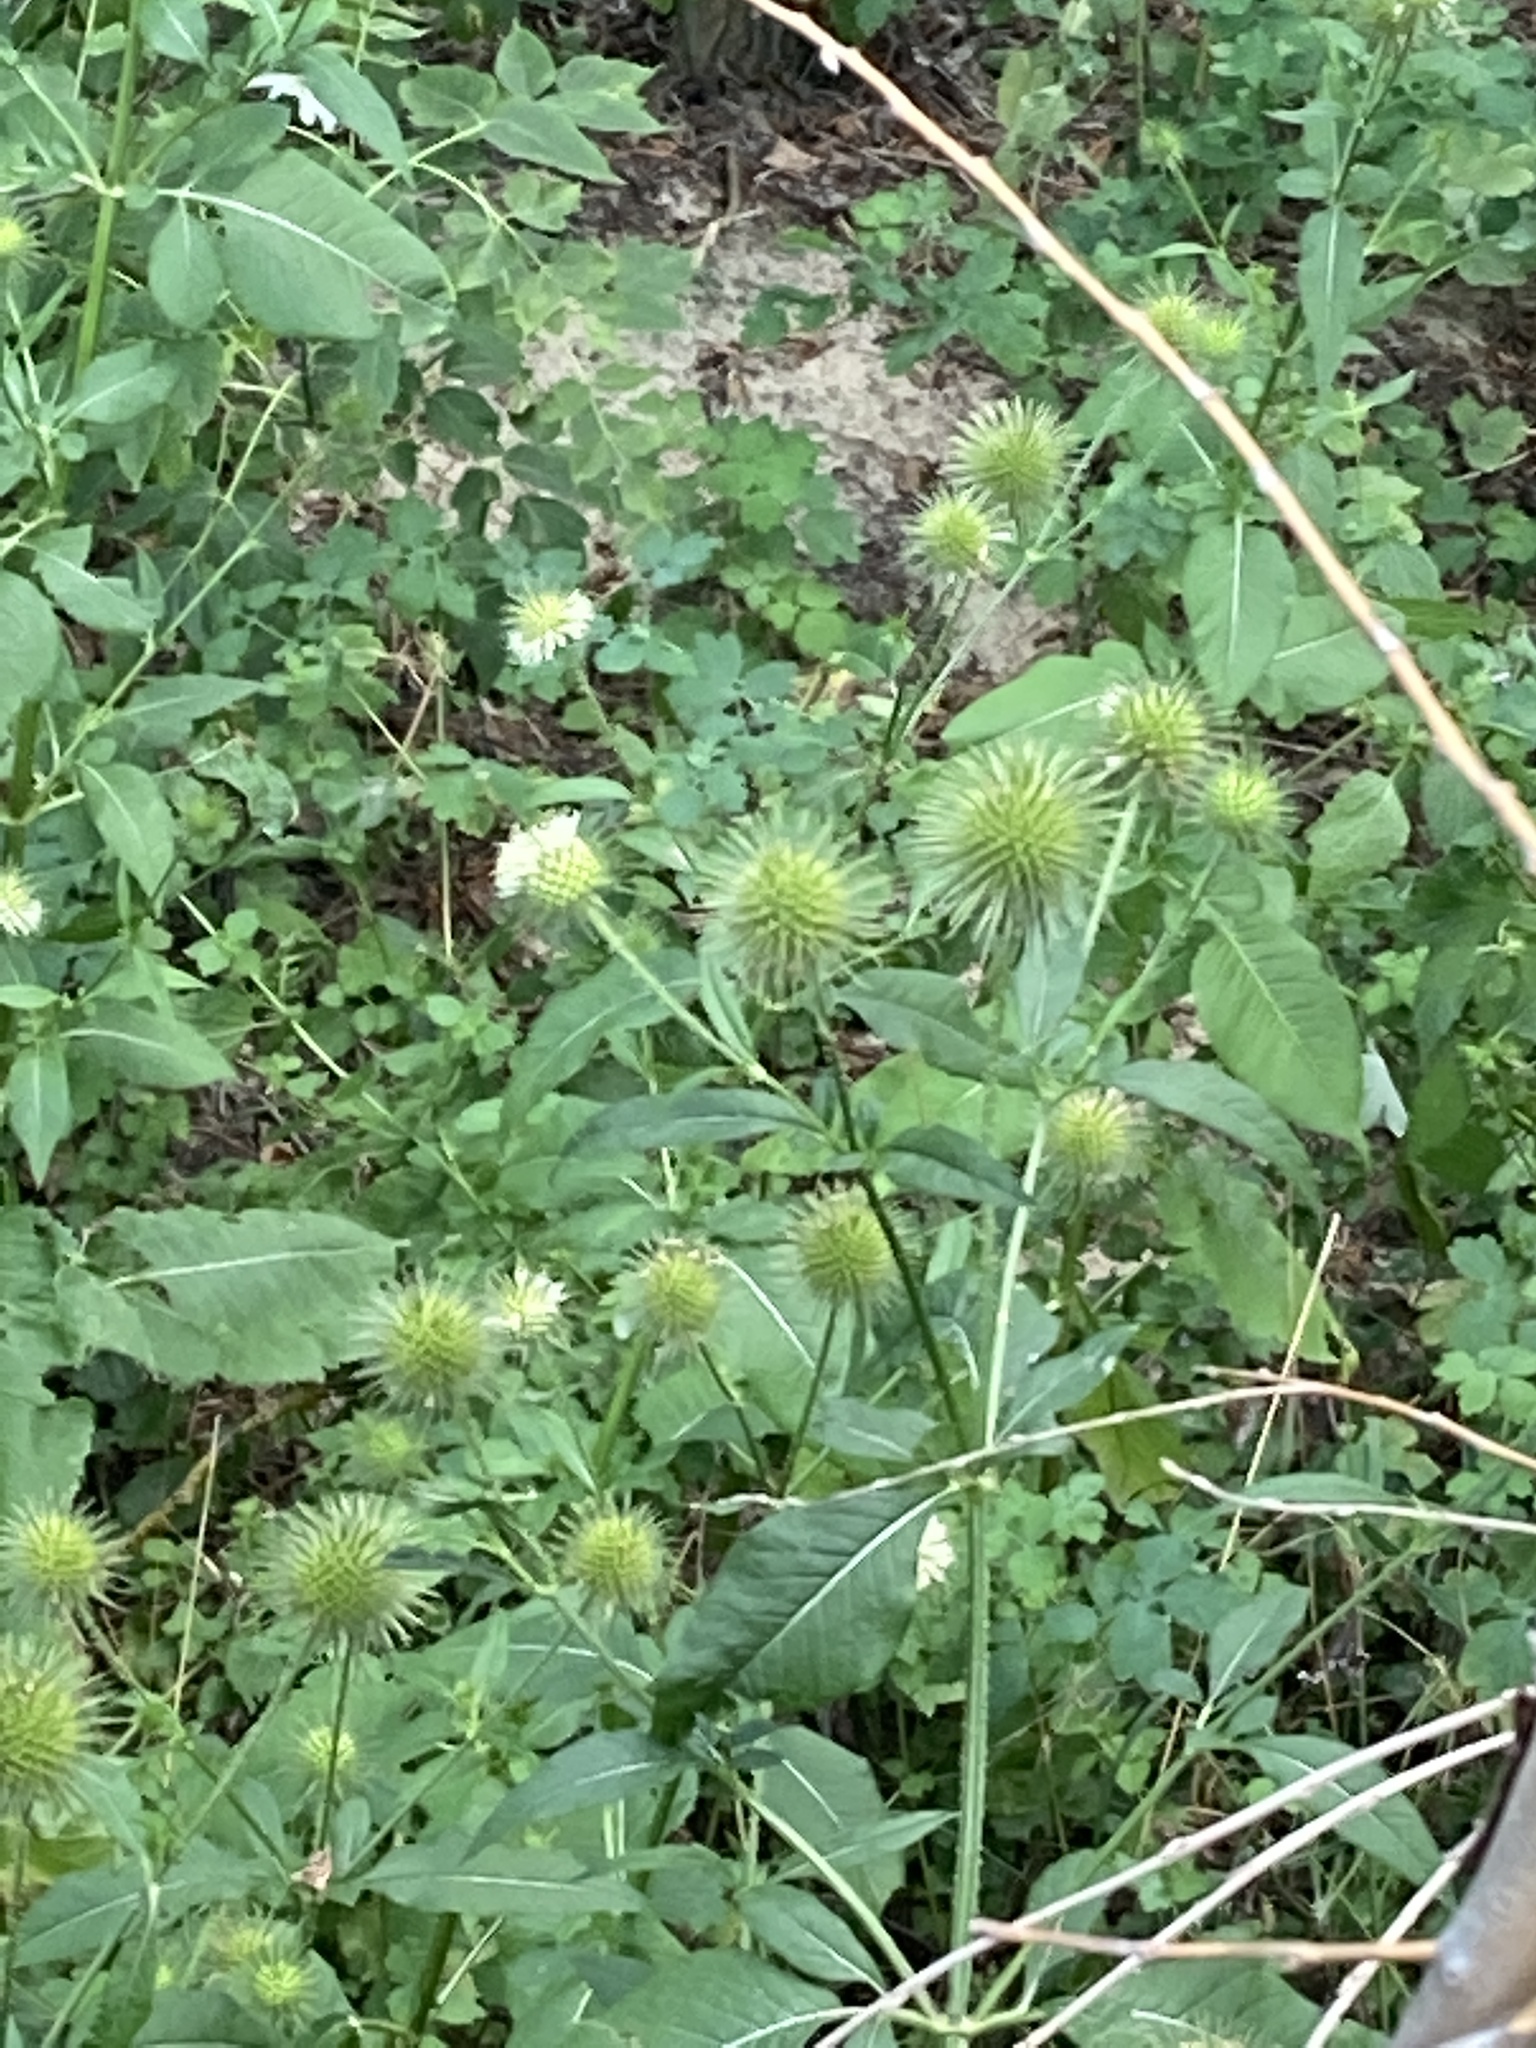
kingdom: Plantae
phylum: Tracheophyta
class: Magnoliopsida
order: Dipsacales
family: Caprifoliaceae
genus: Dipsacus
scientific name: Dipsacus strigosus
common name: Yellow-flowered teasel
